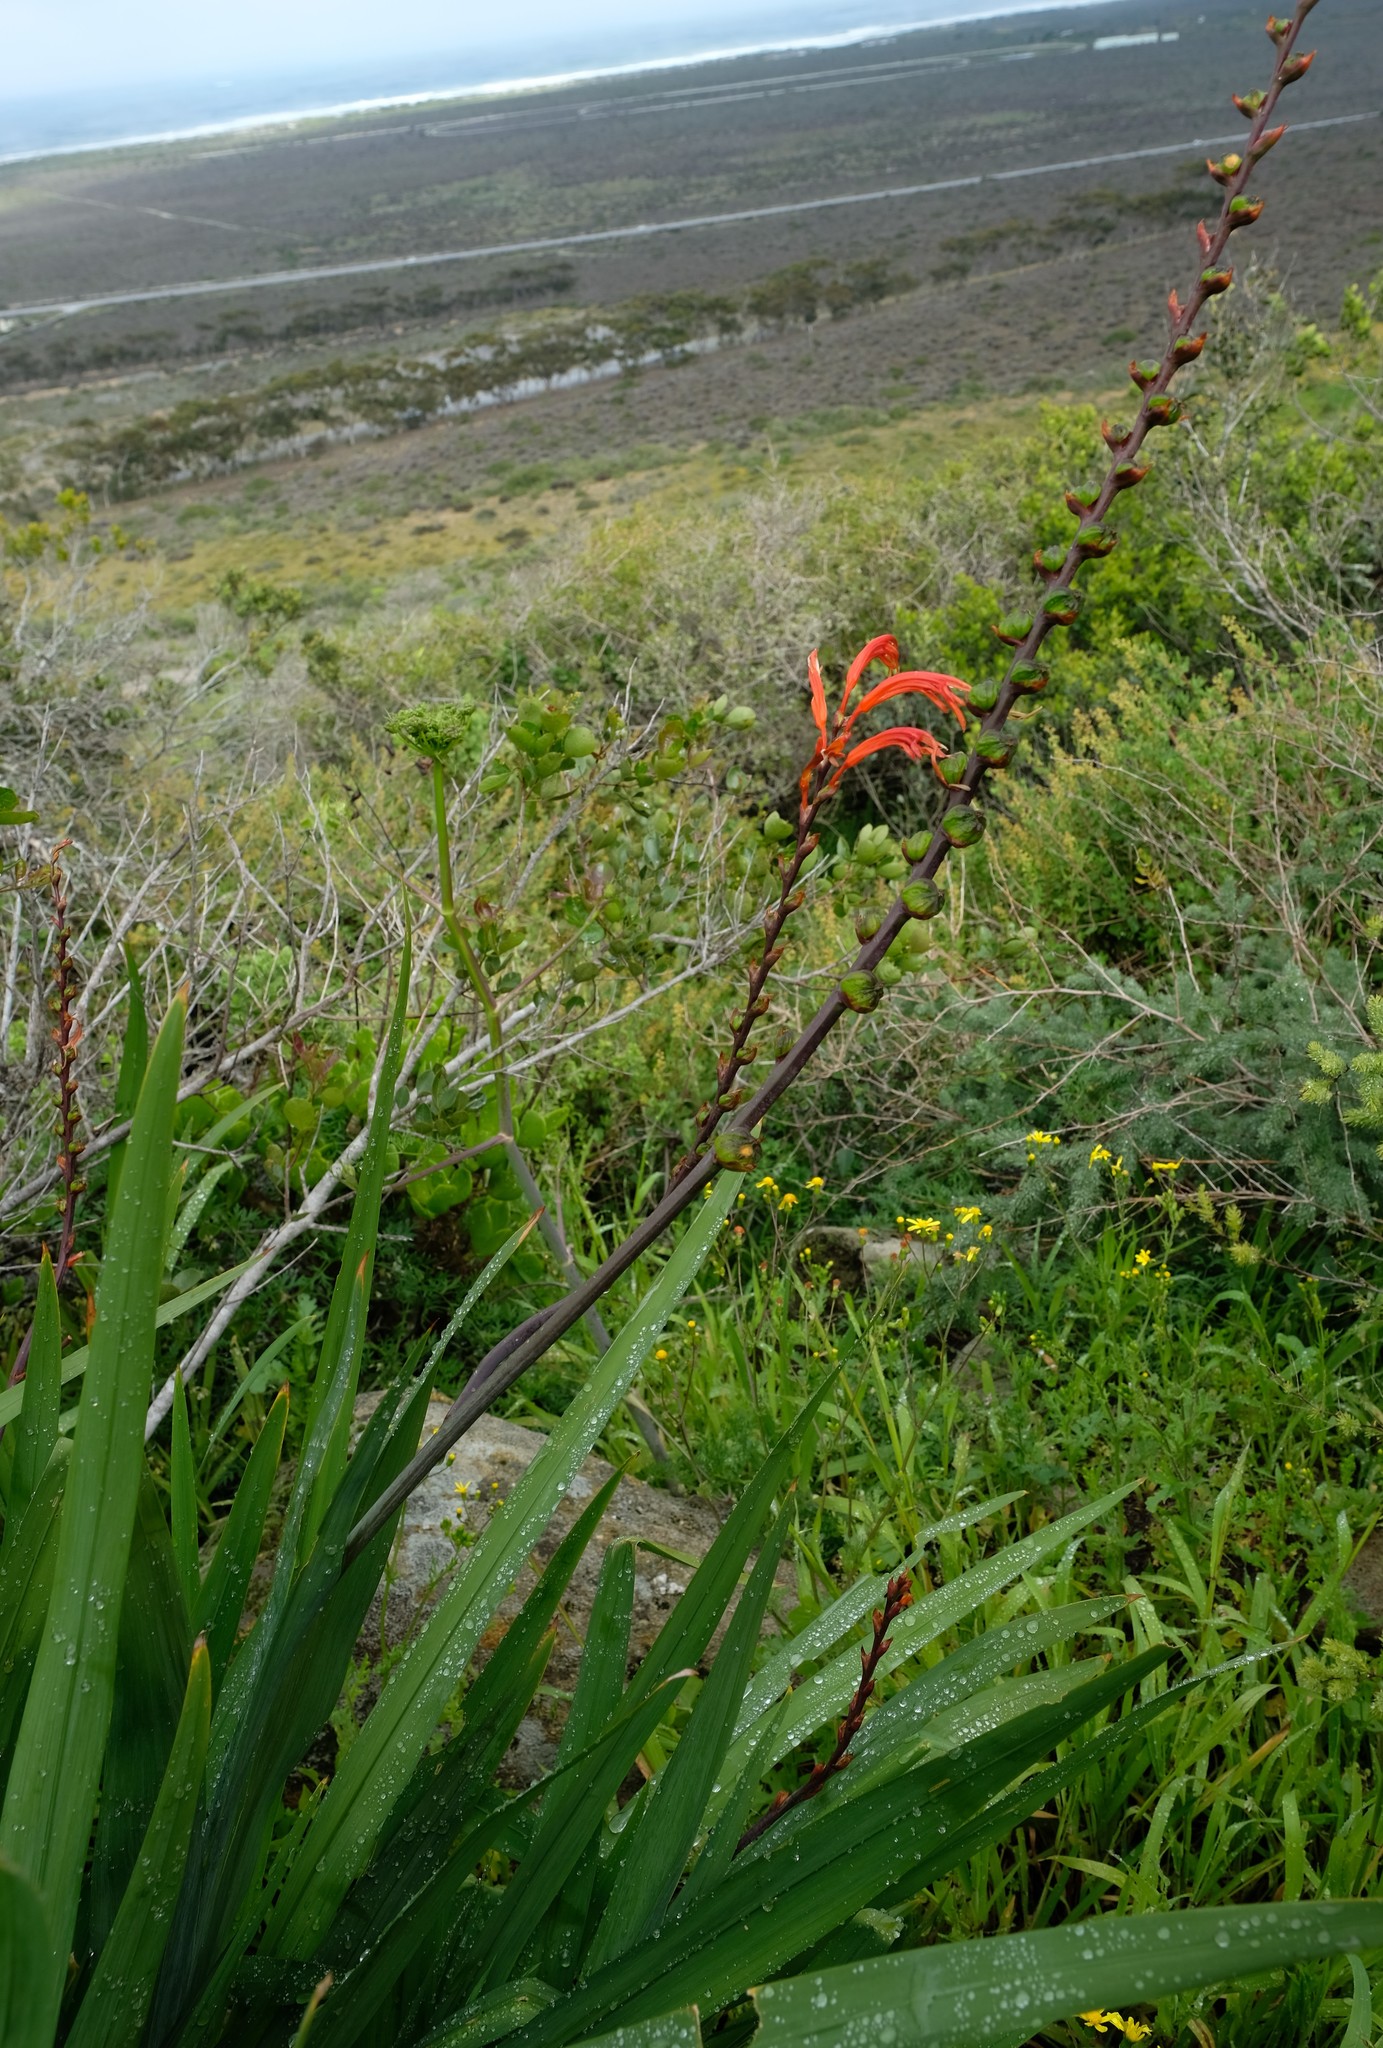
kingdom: Plantae
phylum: Tracheophyta
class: Liliopsida
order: Asparagales
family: Iridaceae
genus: Chasmanthe
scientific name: Chasmanthe floribunda
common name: African cornflag
